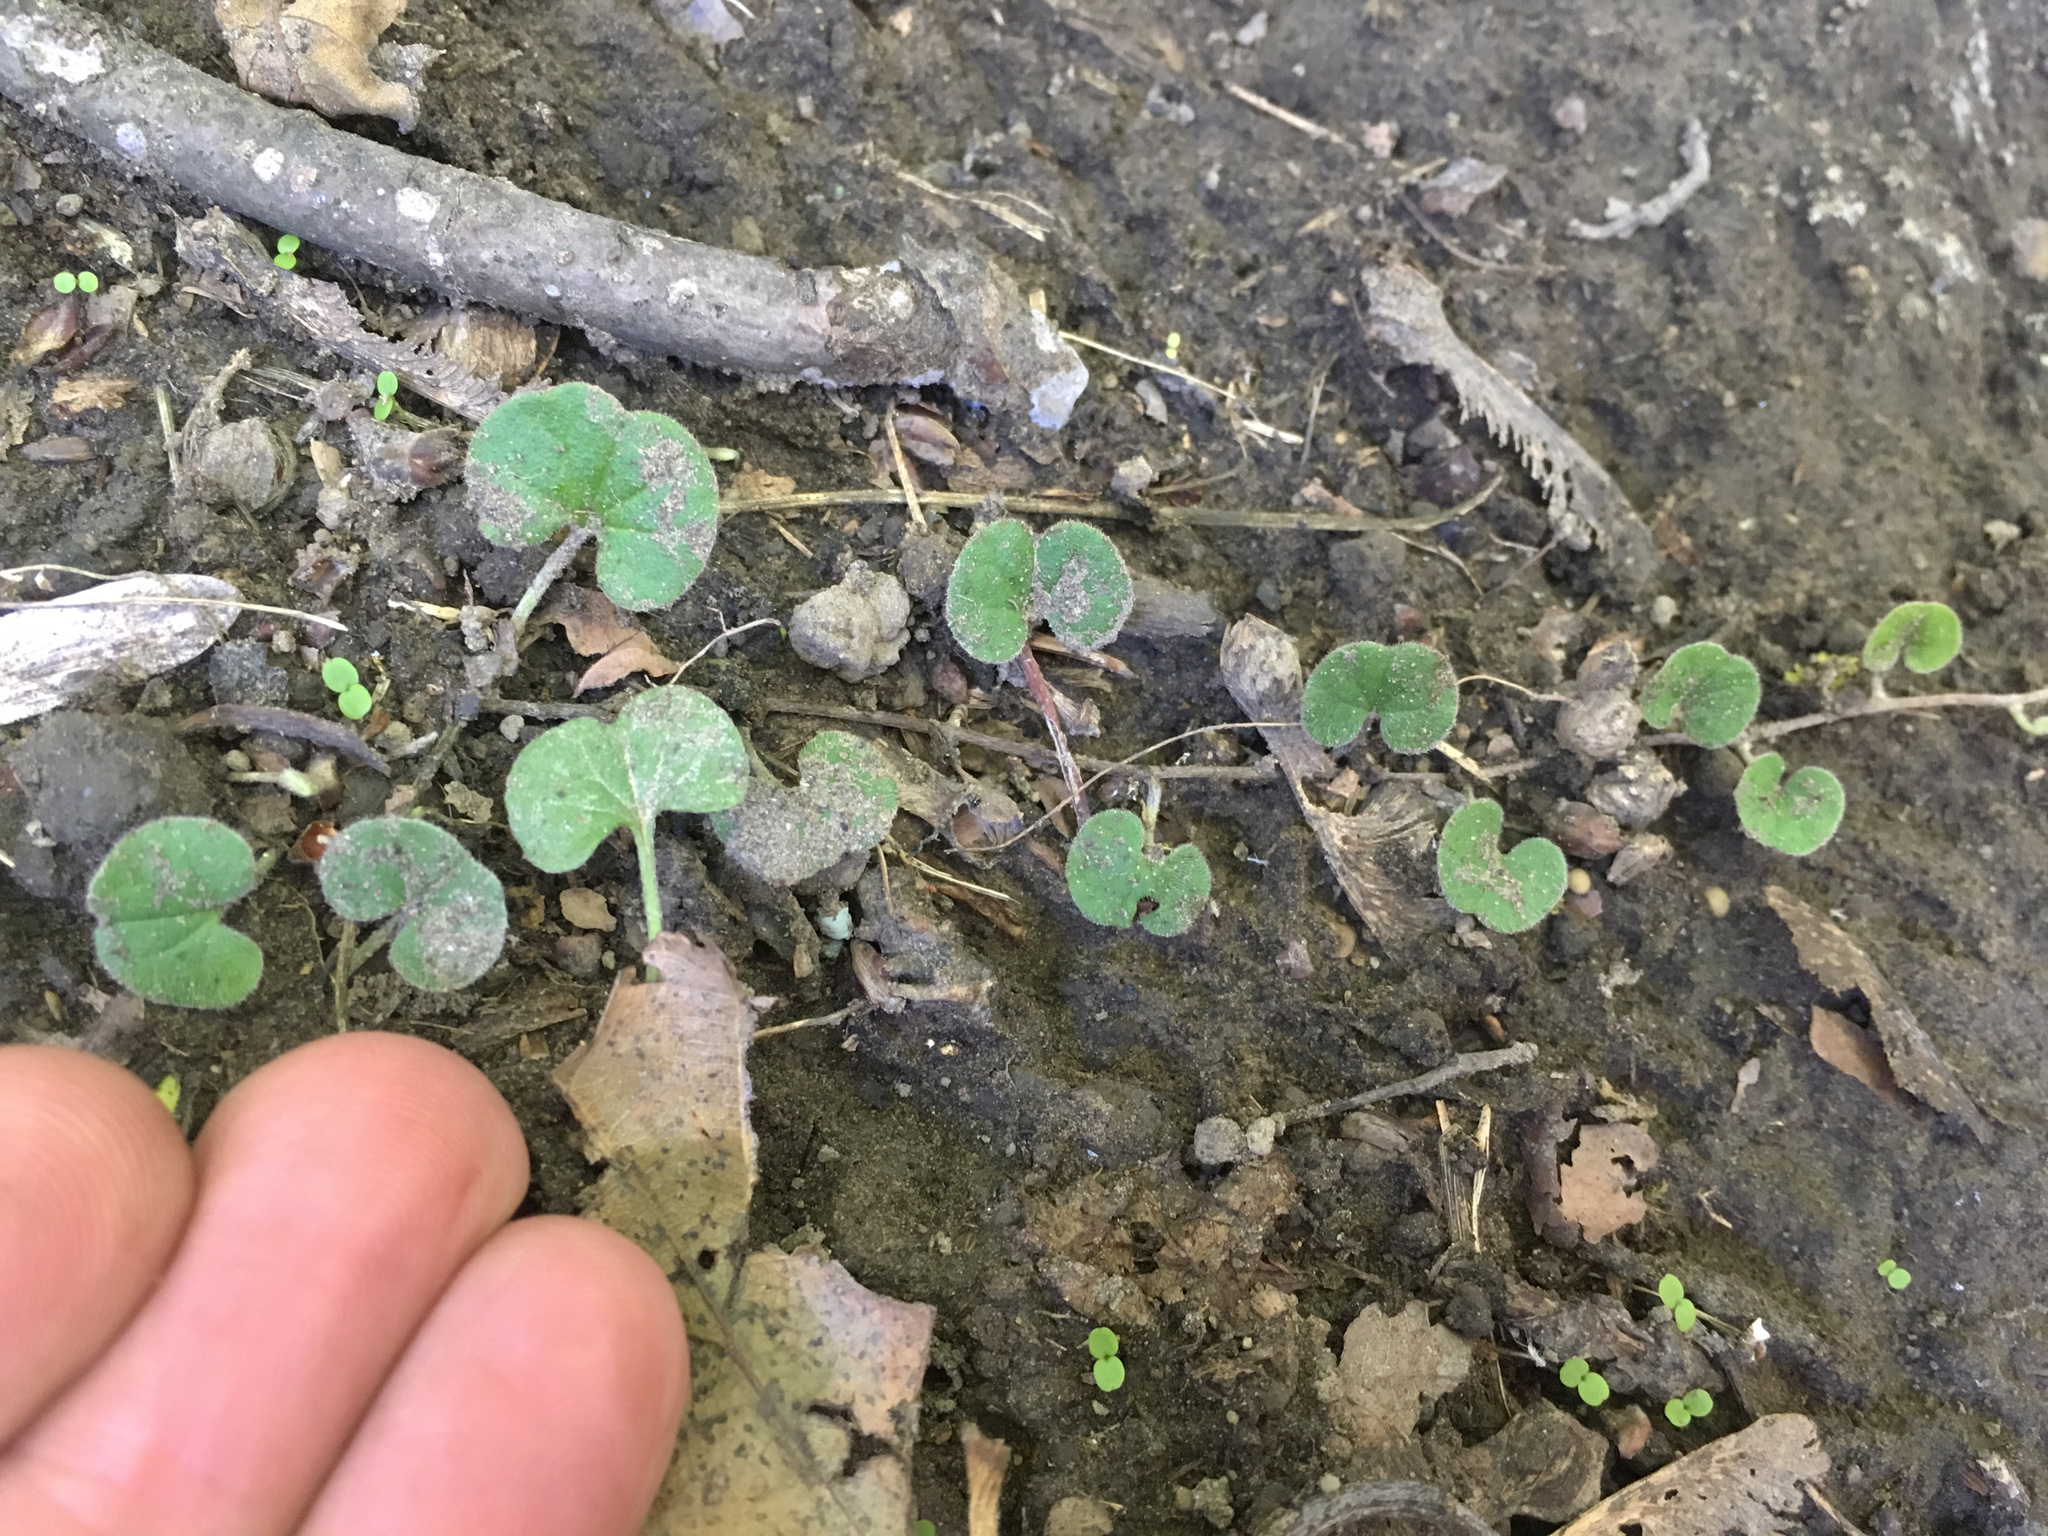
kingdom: Plantae
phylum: Tracheophyta
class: Magnoliopsida
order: Solanales
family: Convolvulaceae
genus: Dichondra
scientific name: Dichondra repens
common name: Kidneyweed
